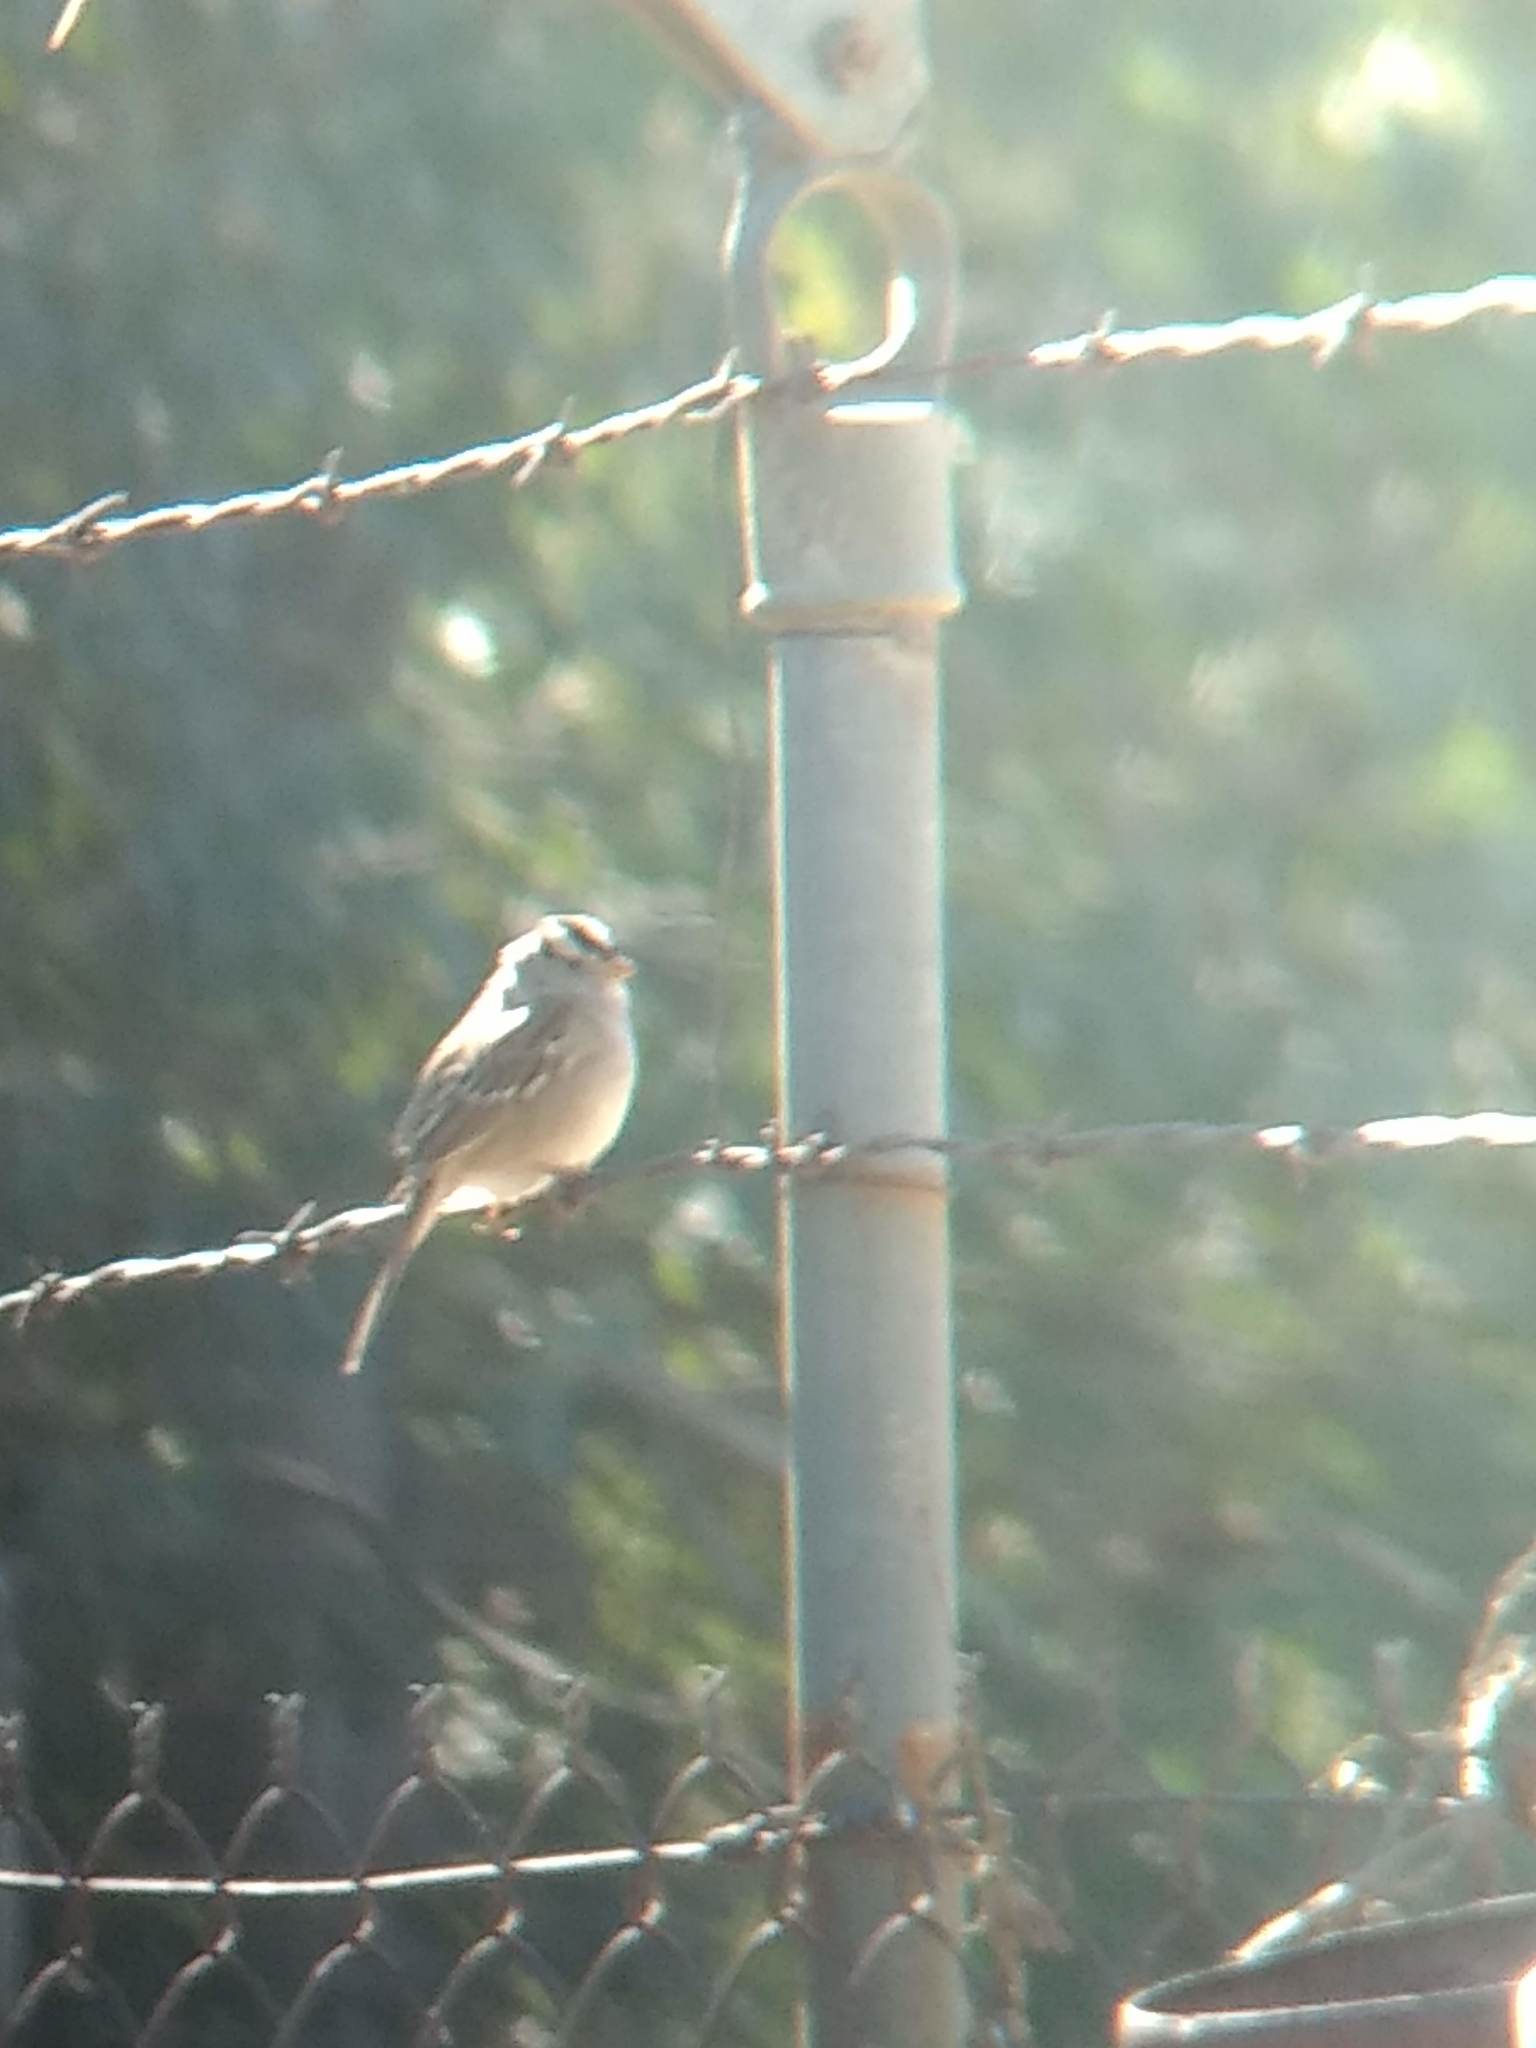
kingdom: Animalia
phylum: Chordata
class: Aves
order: Passeriformes
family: Passerellidae
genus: Zonotrichia
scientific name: Zonotrichia leucophrys
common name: White-crowned sparrow
